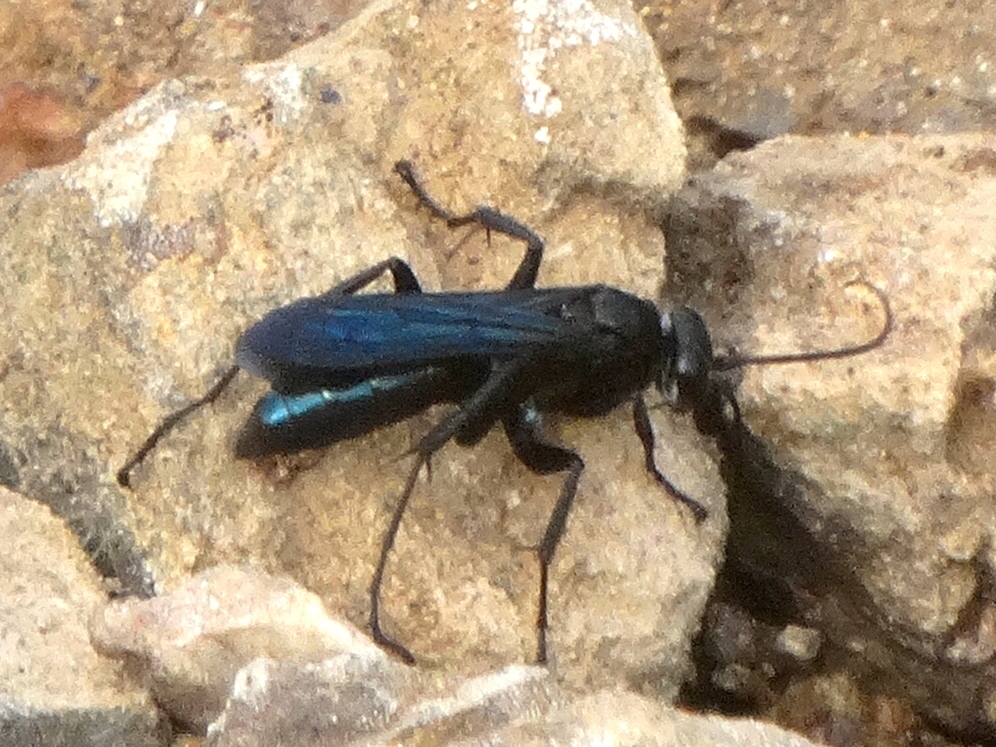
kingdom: Animalia
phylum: Arthropoda
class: Insecta
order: Hymenoptera
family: Pompilidae
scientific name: Pompilidae
